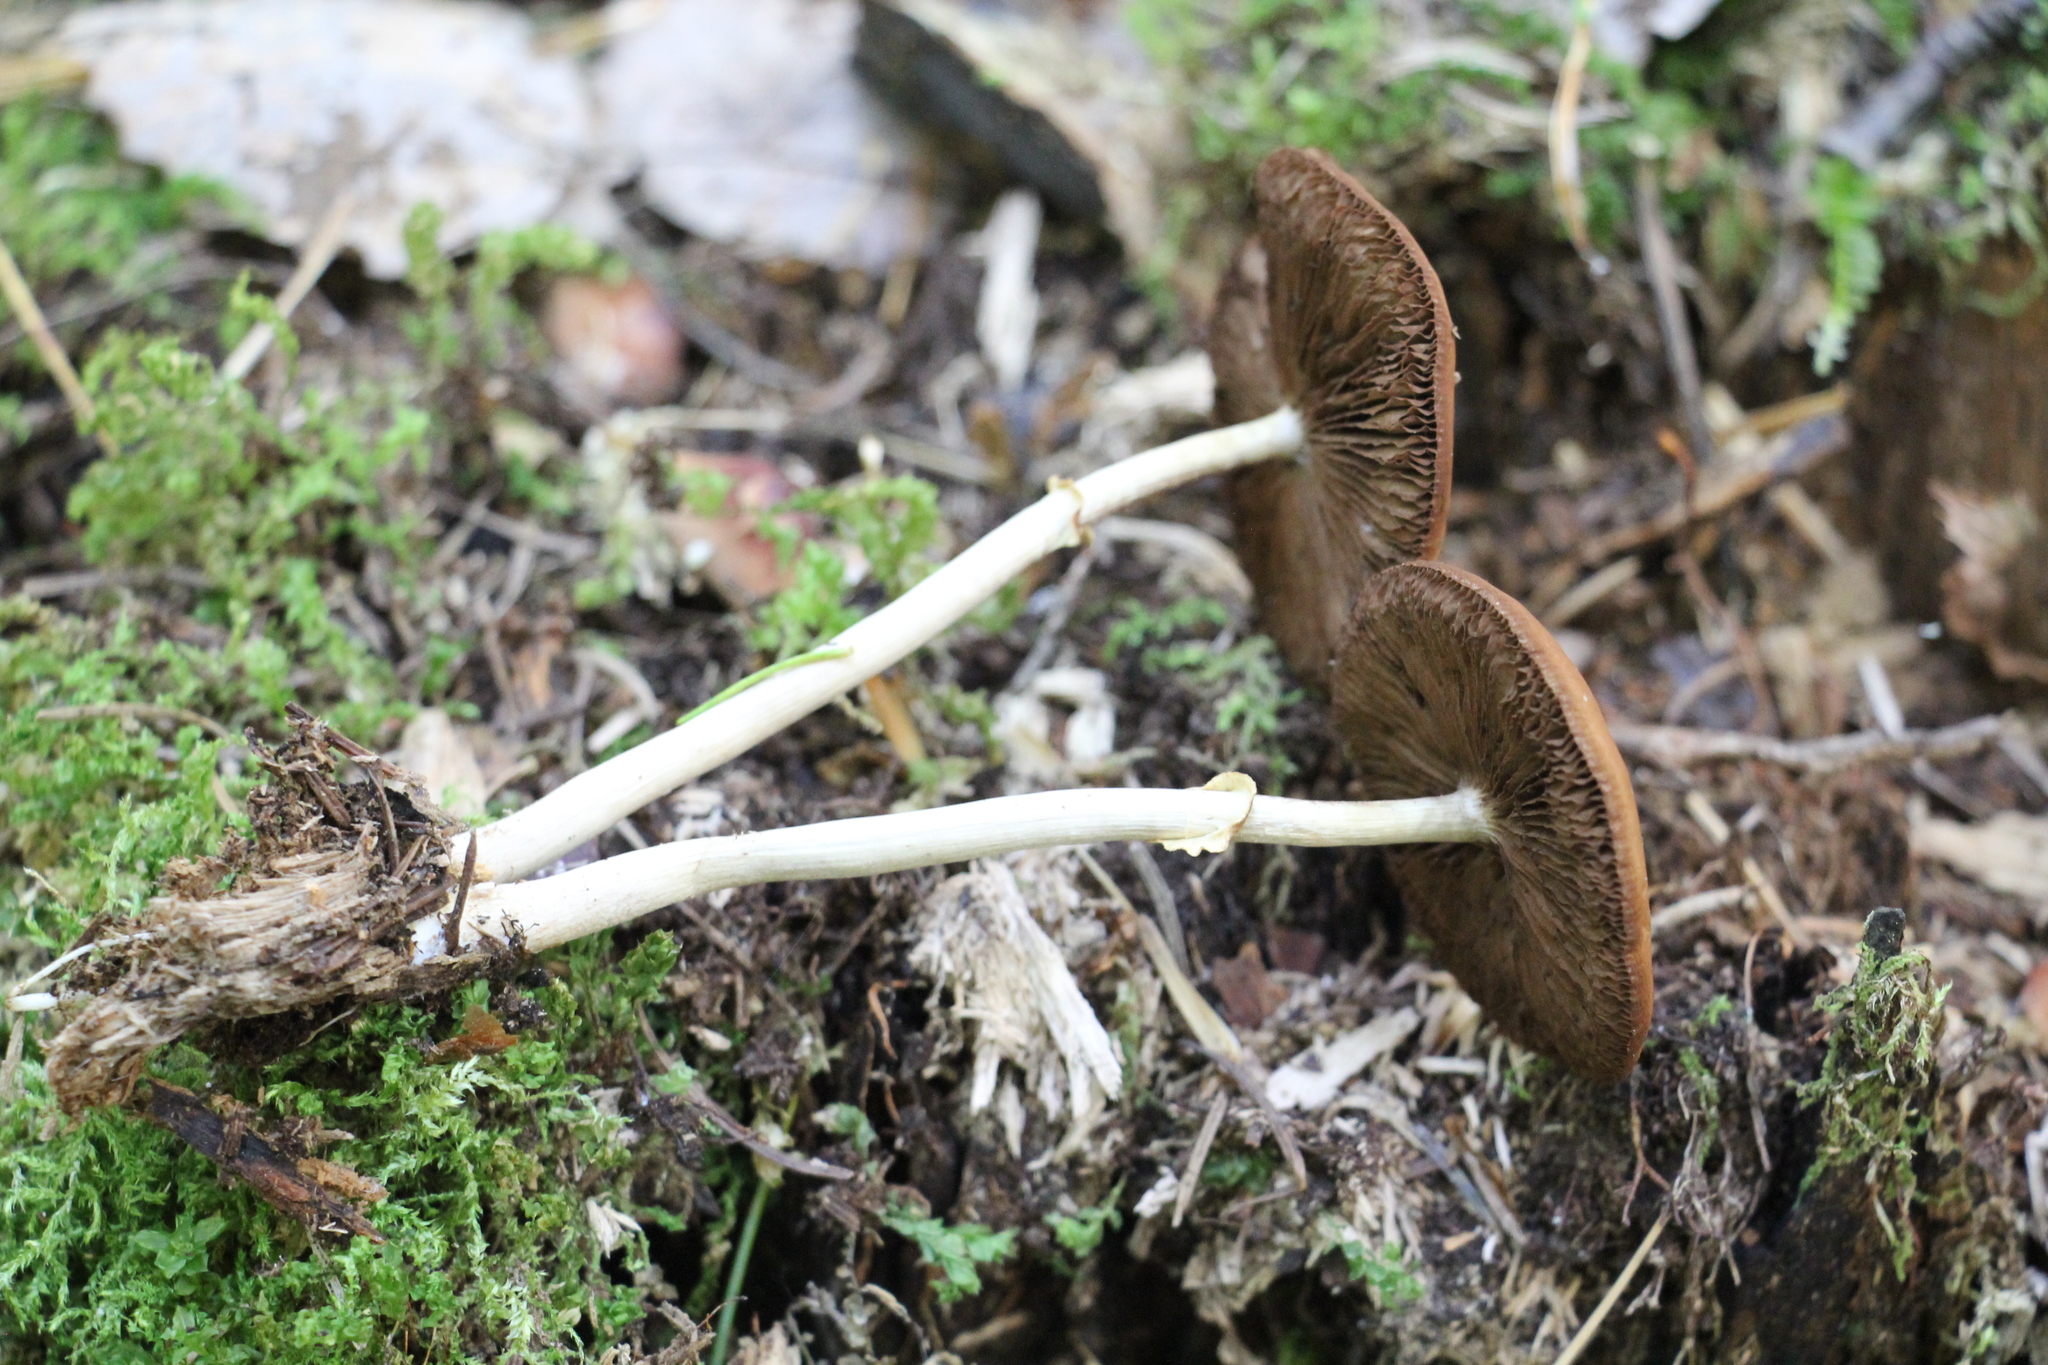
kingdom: Fungi
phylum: Basidiomycota
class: Agaricomycetes
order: Agaricales
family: Strophariaceae
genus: Agrocybe
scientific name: Agrocybe praecox
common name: Spring fieldcap
